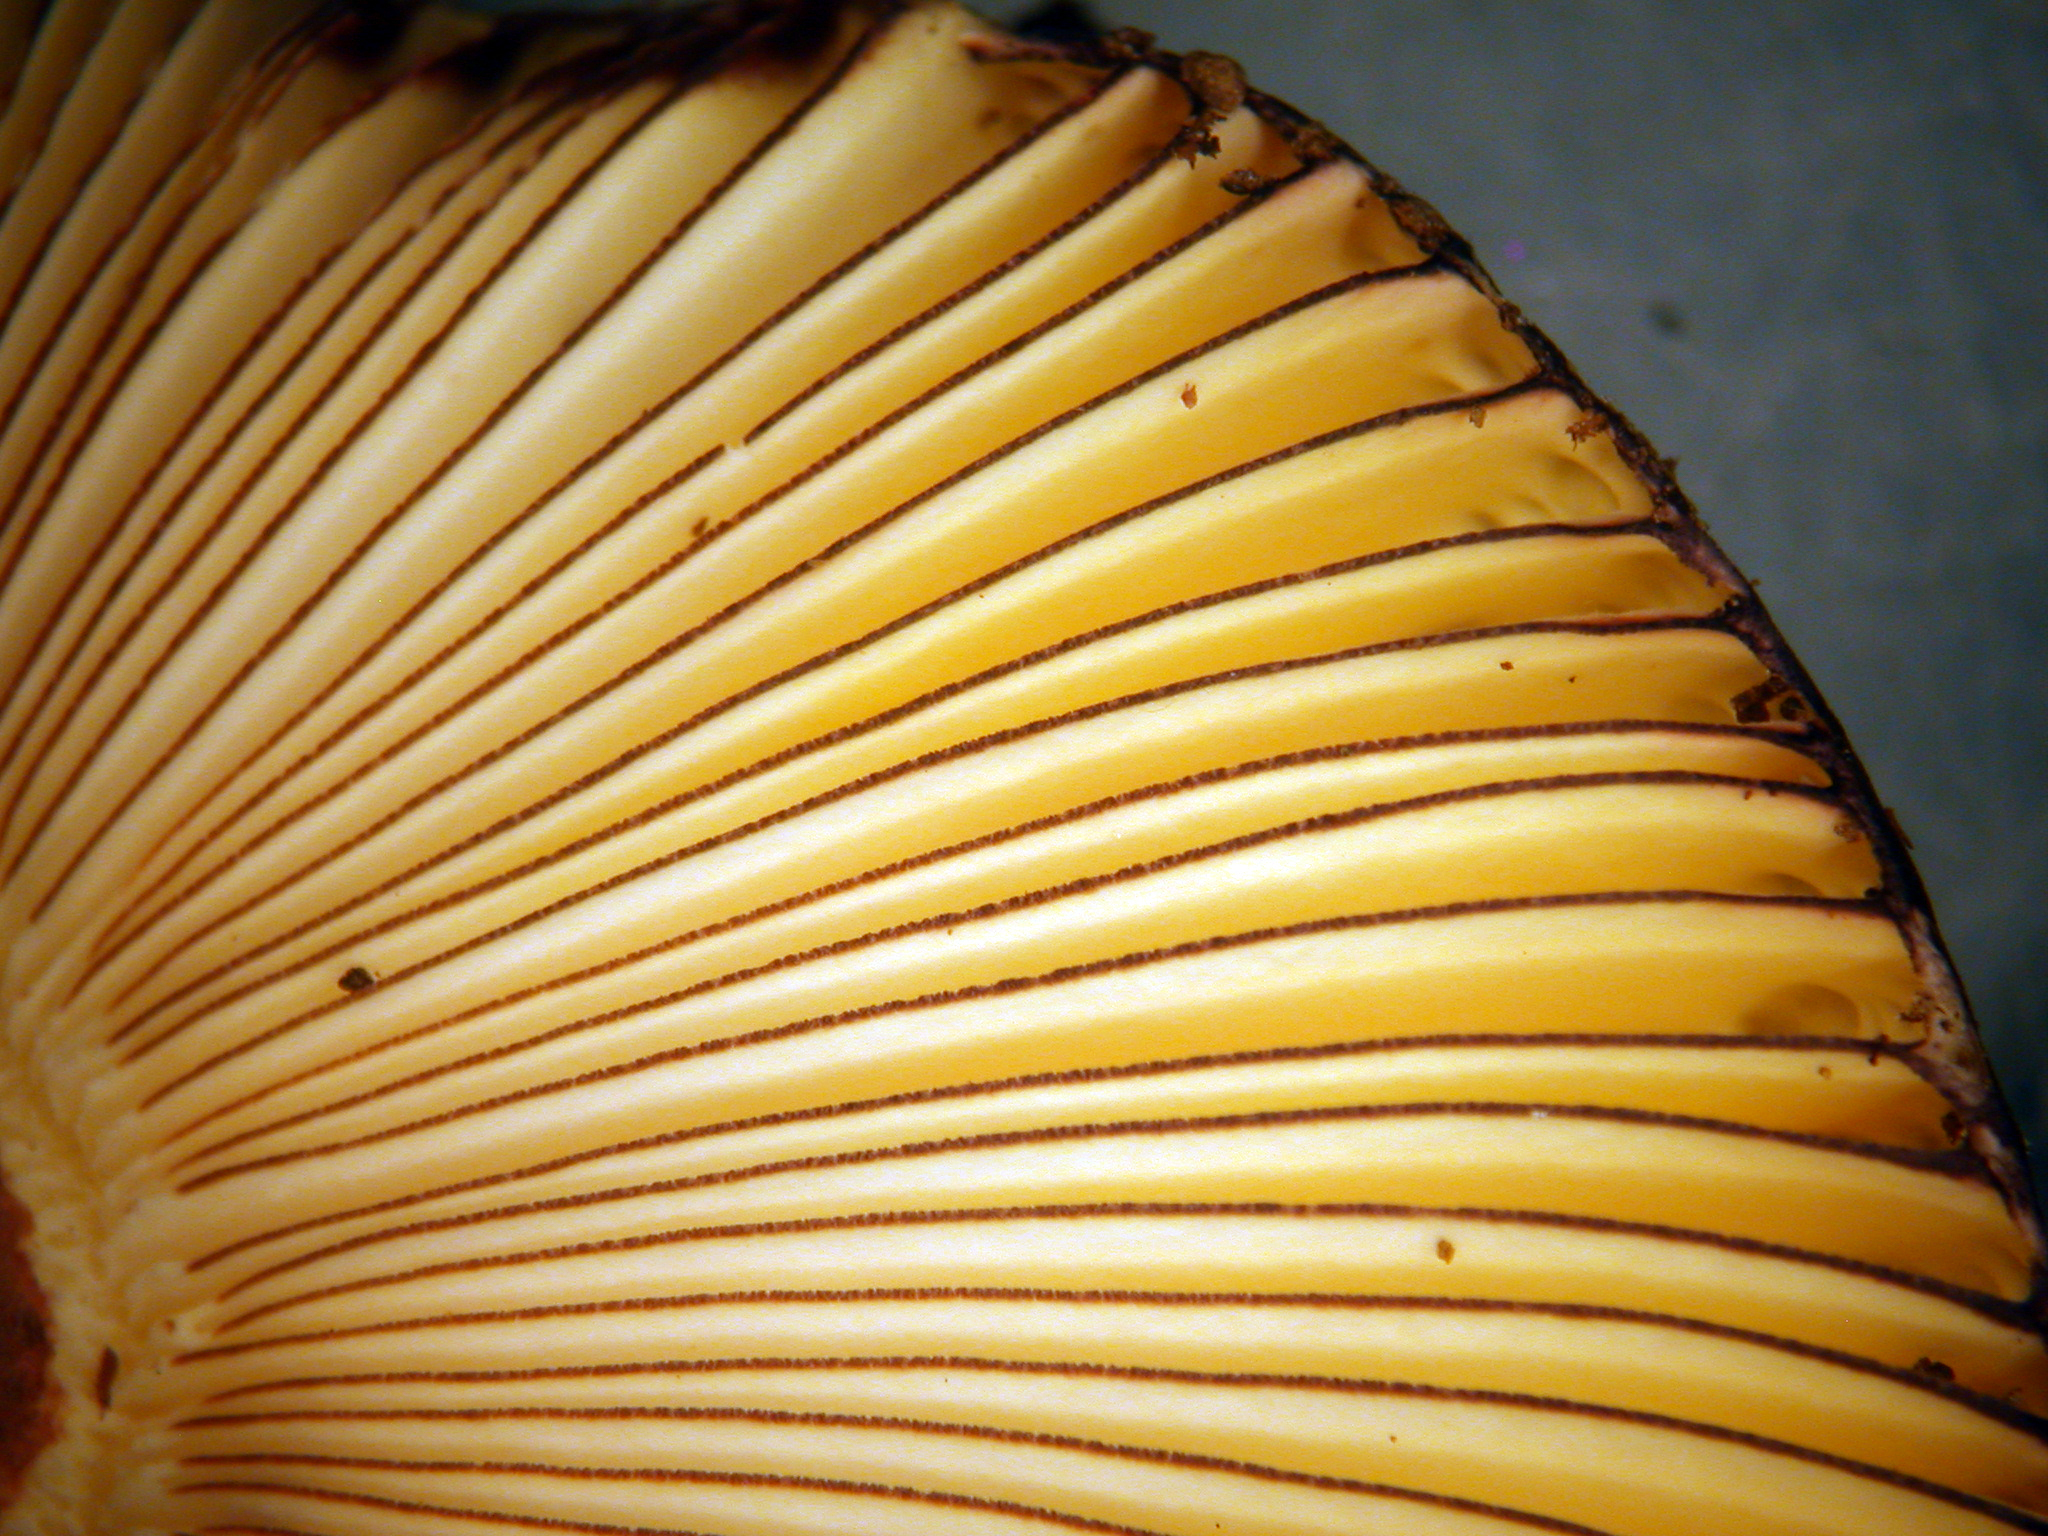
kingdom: Fungi
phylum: Basidiomycota
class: Agaricomycetes
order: Russulales
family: Russulaceae
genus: Russula
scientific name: Russula tawai
